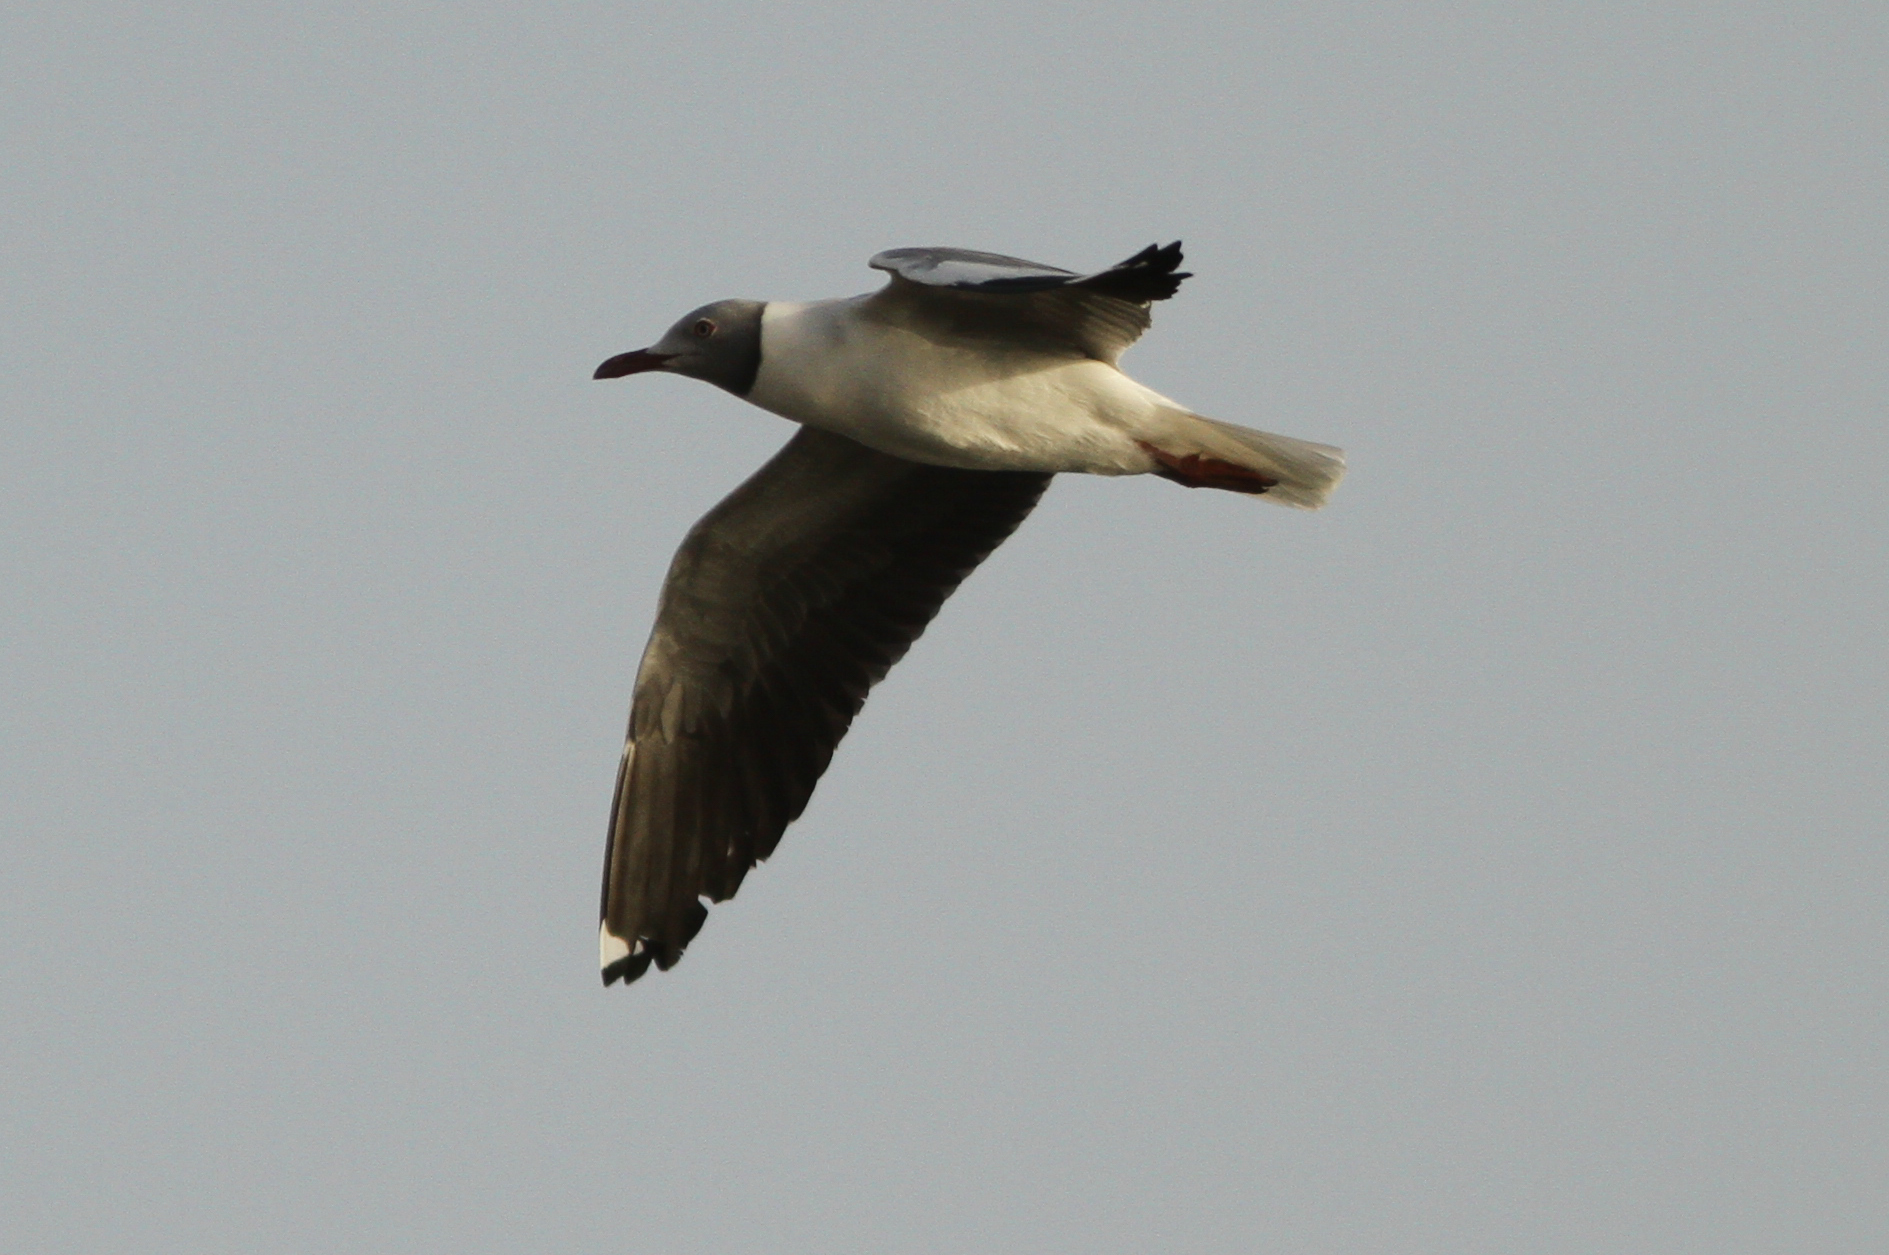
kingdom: Animalia
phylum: Chordata
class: Aves
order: Charadriiformes
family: Laridae
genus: Chroicocephalus
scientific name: Chroicocephalus cirrocephalus
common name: Grey-headed gull
